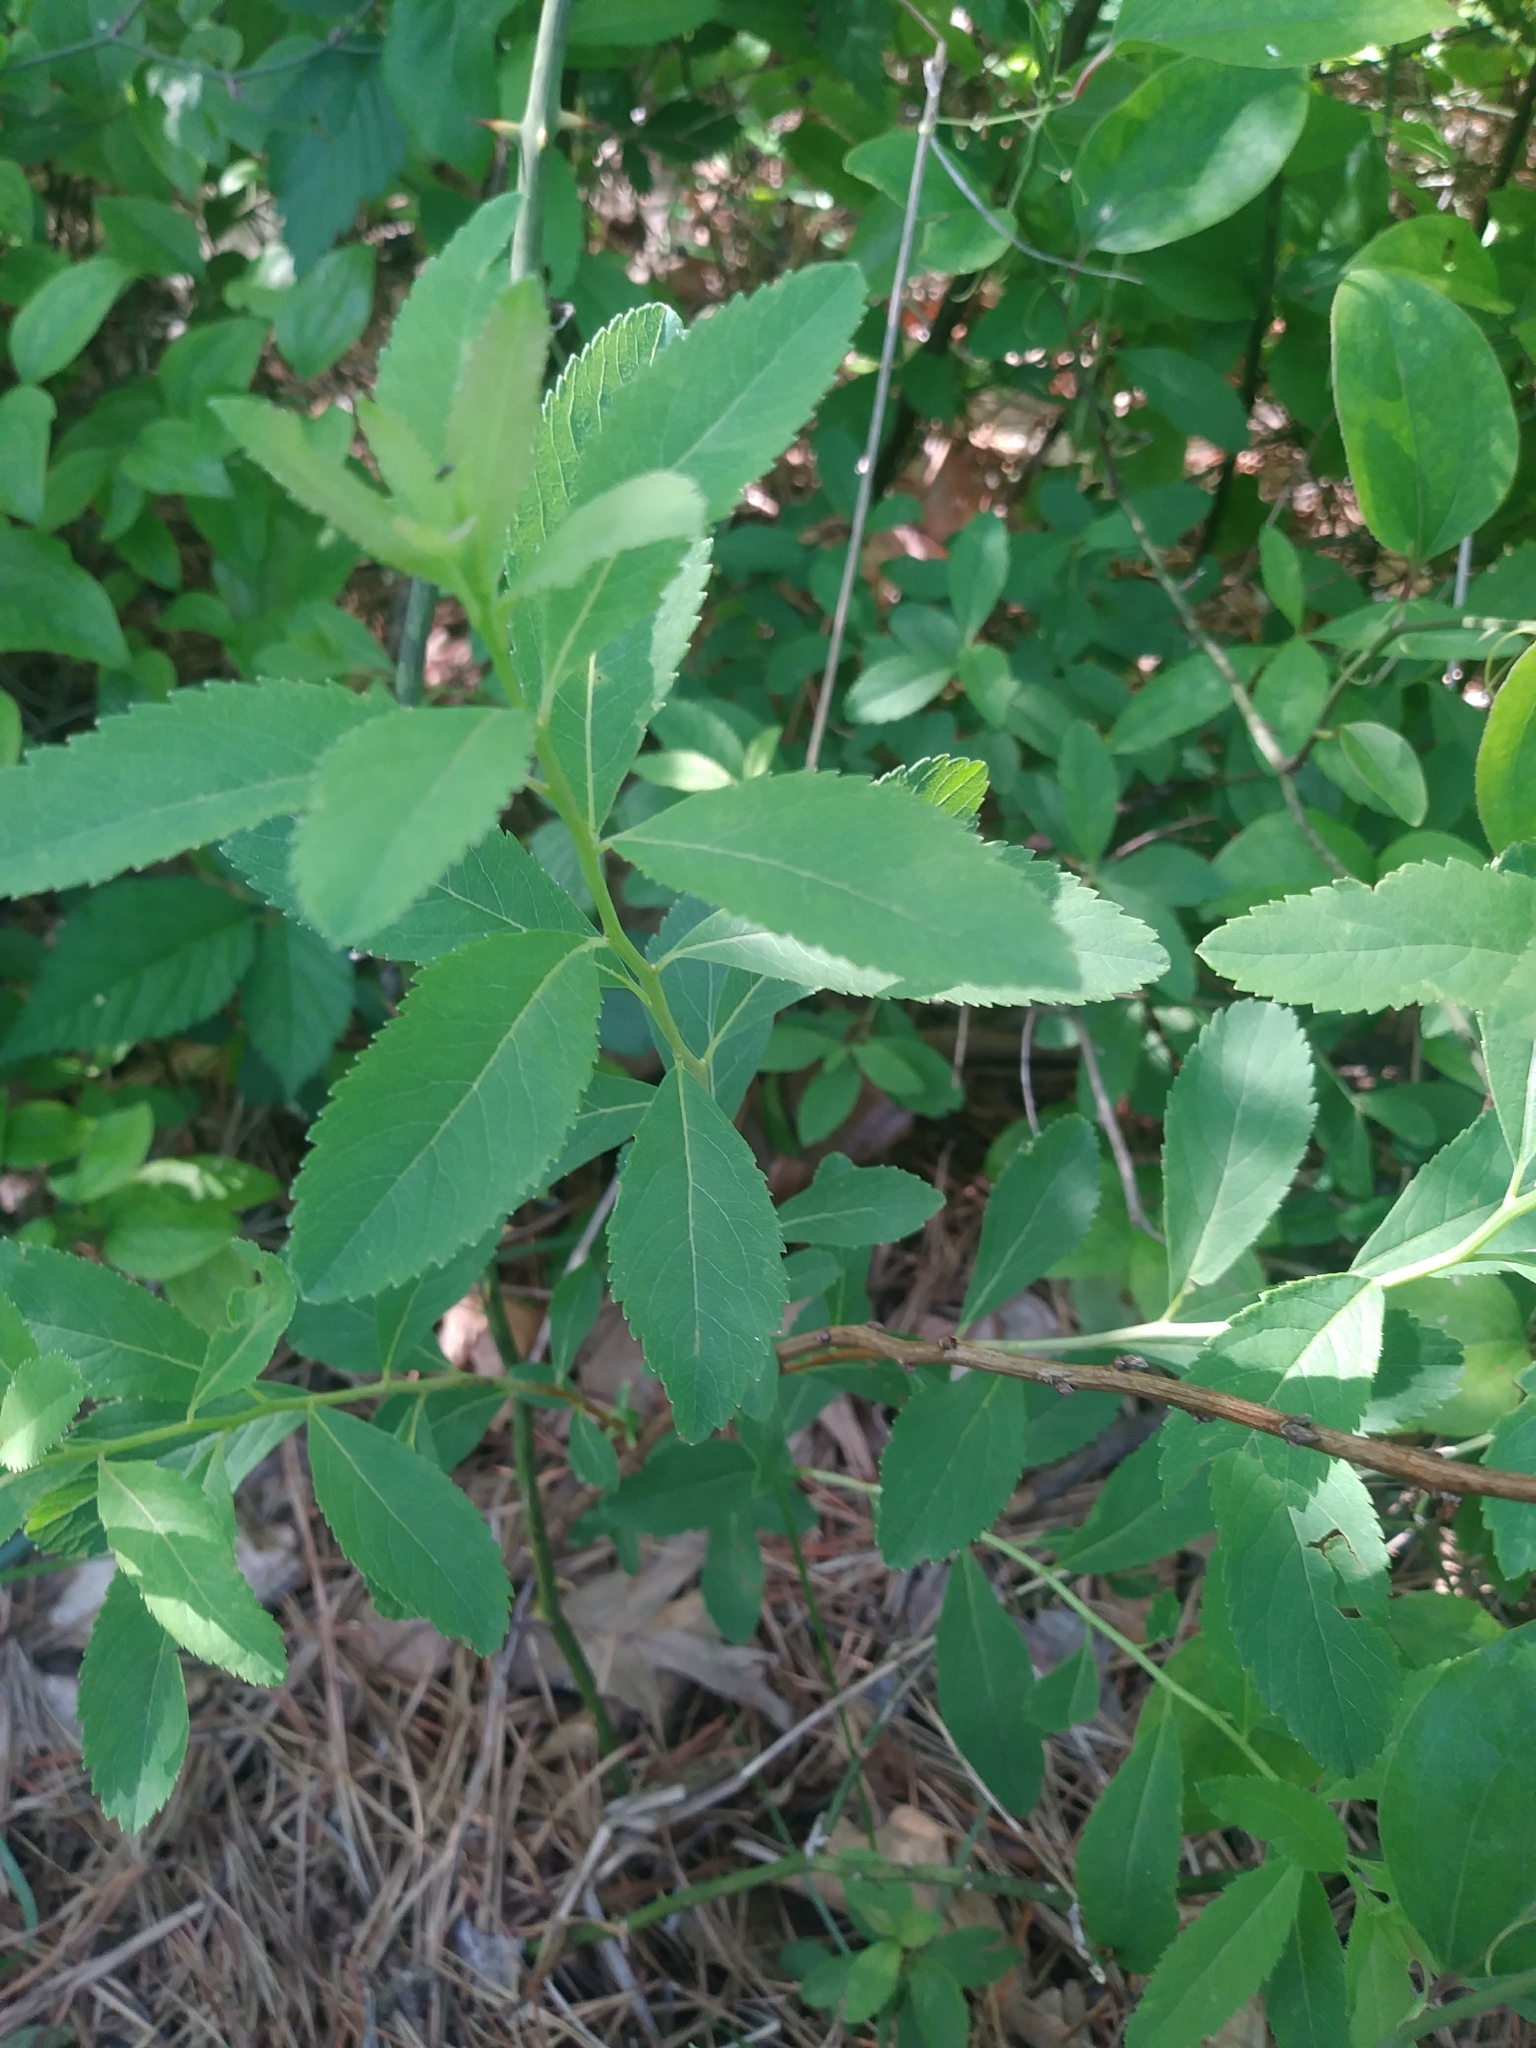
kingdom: Plantae
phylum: Tracheophyta
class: Magnoliopsida
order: Rosales
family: Rosaceae
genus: Spiraea
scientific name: Spiraea alba
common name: Pale bridewort
